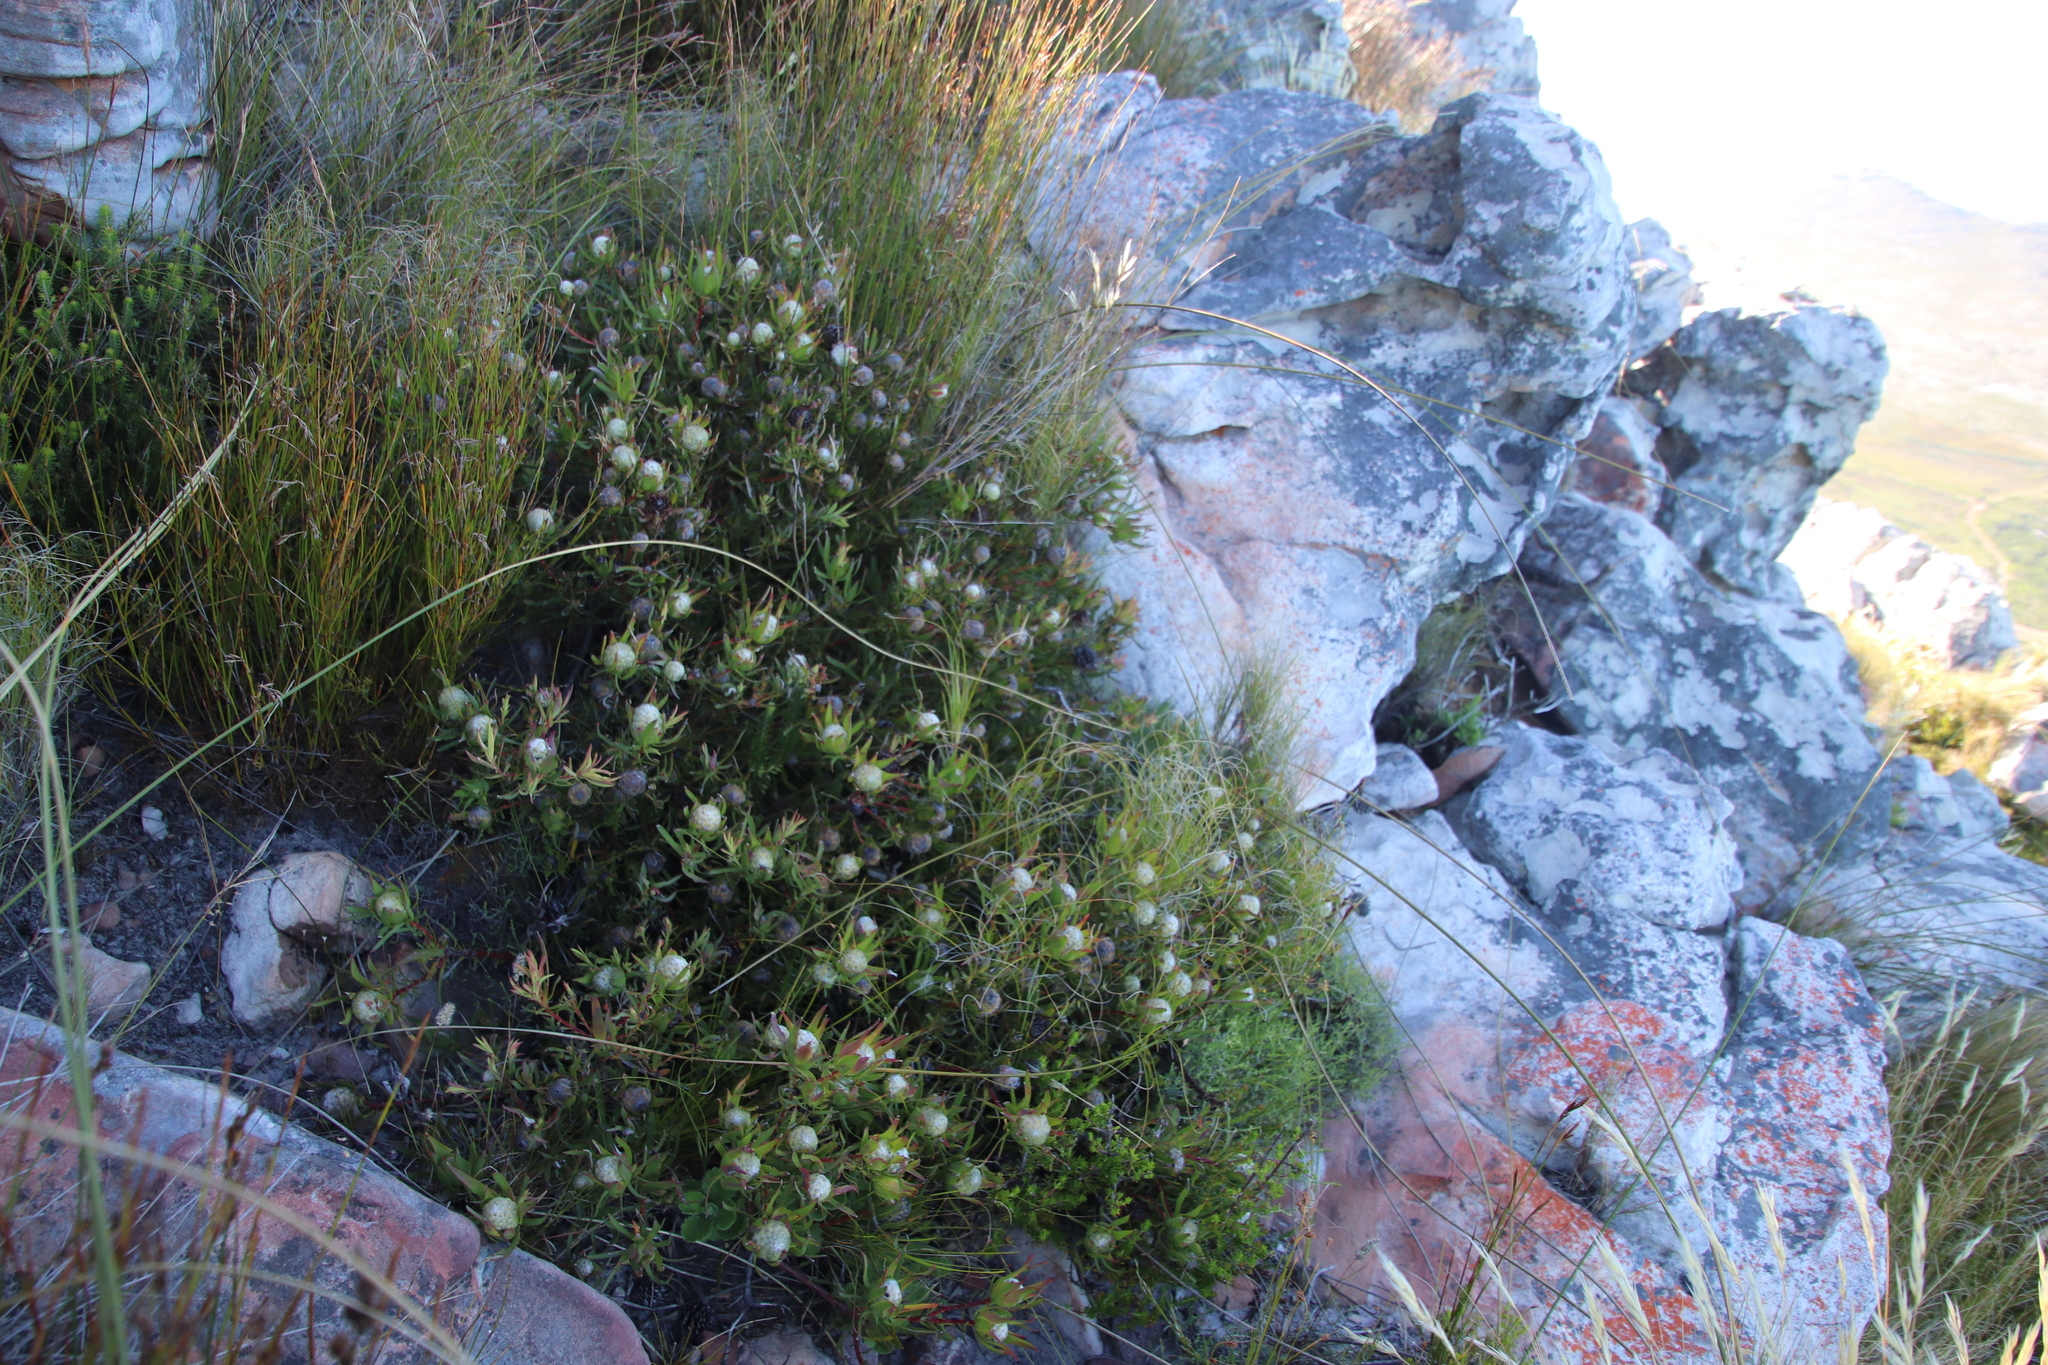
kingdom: Plantae
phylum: Tracheophyta
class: Magnoliopsida
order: Proteales
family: Proteaceae
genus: Leucadendron
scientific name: Leucadendron salignum
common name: Common sunshine conebush
